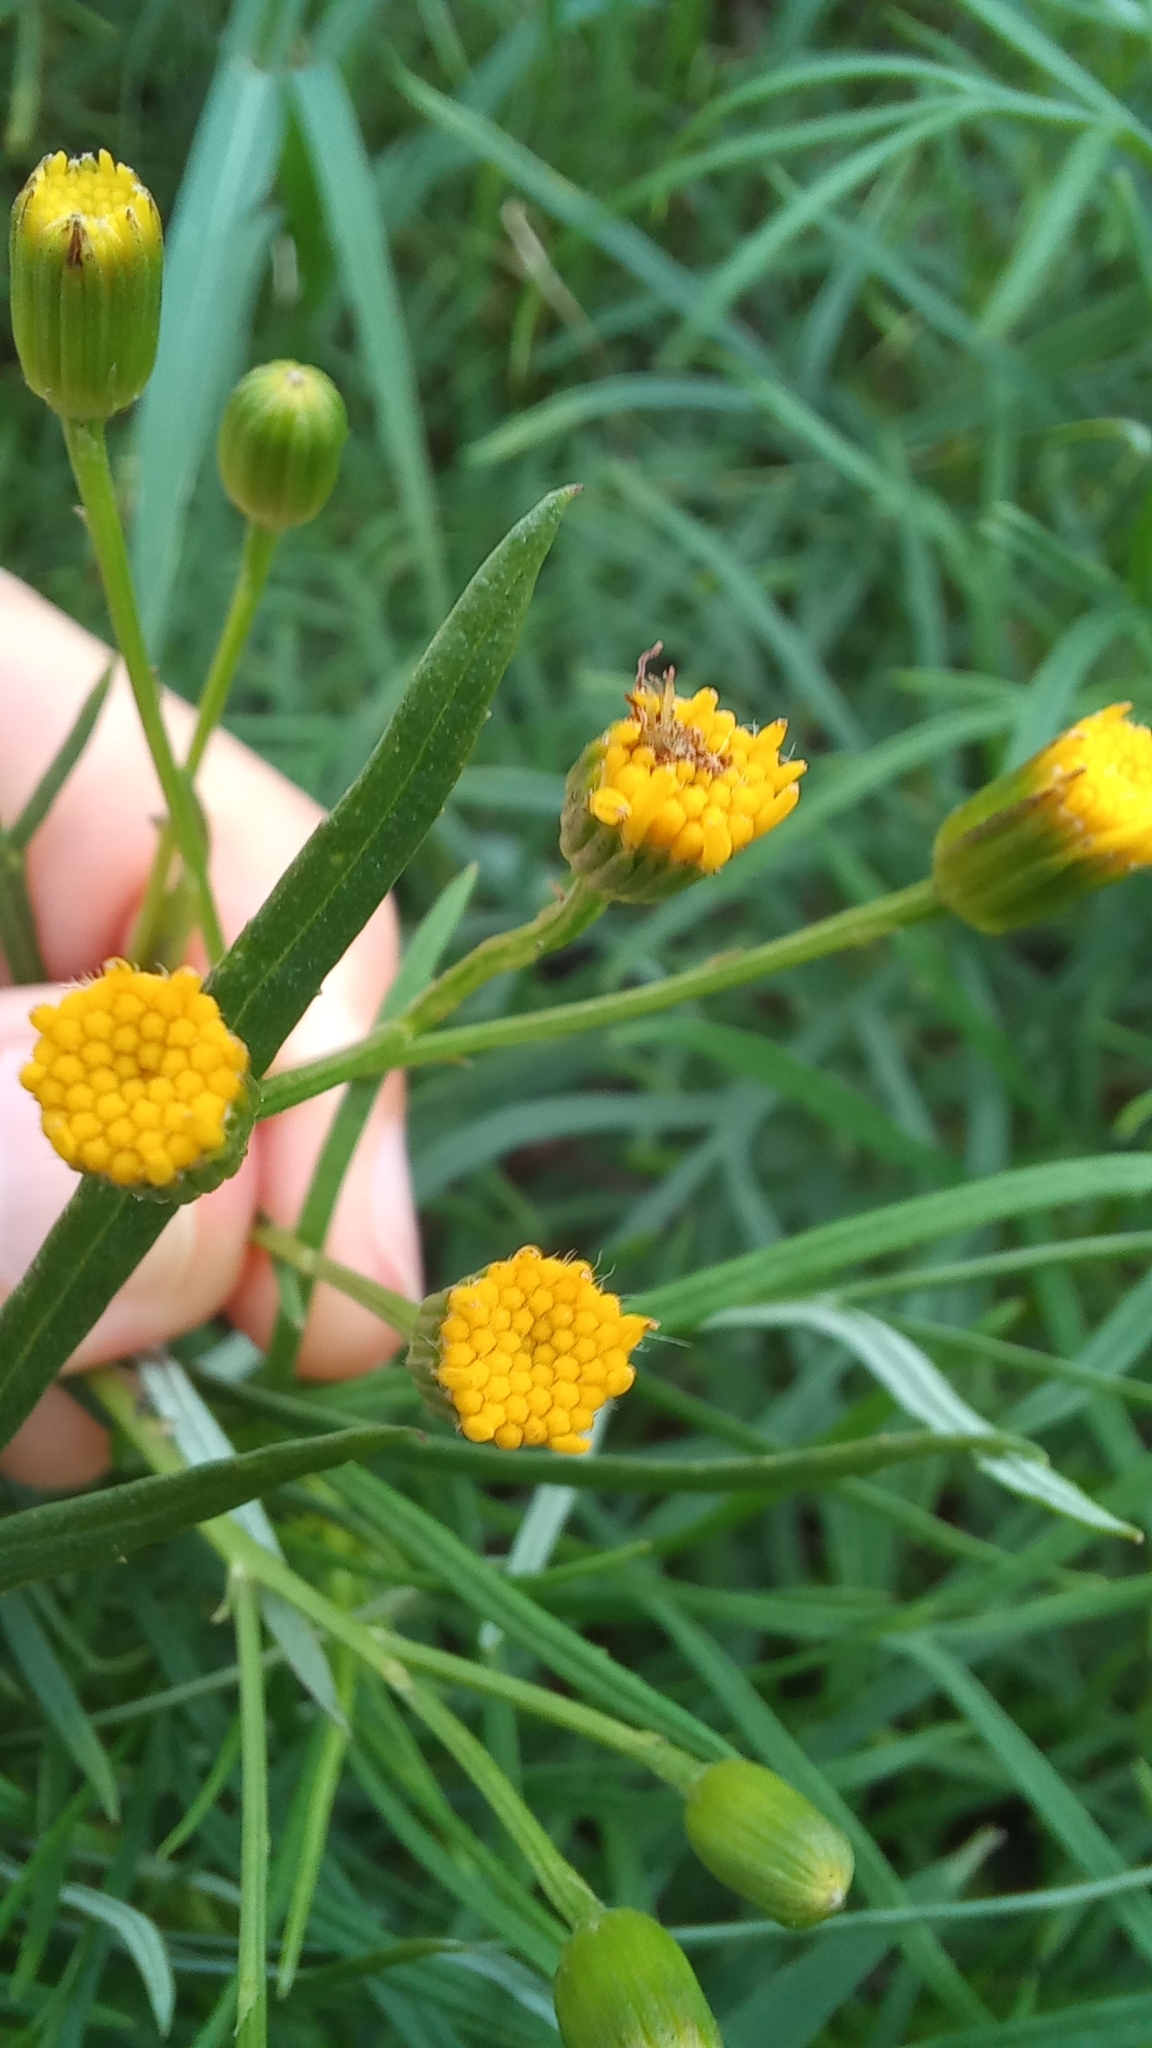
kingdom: Plantae
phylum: Tracheophyta
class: Magnoliopsida
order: Asterales
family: Asteraceae
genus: Senecio
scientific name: Senecio brasiliensis
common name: Hemp-leaf ragwort
